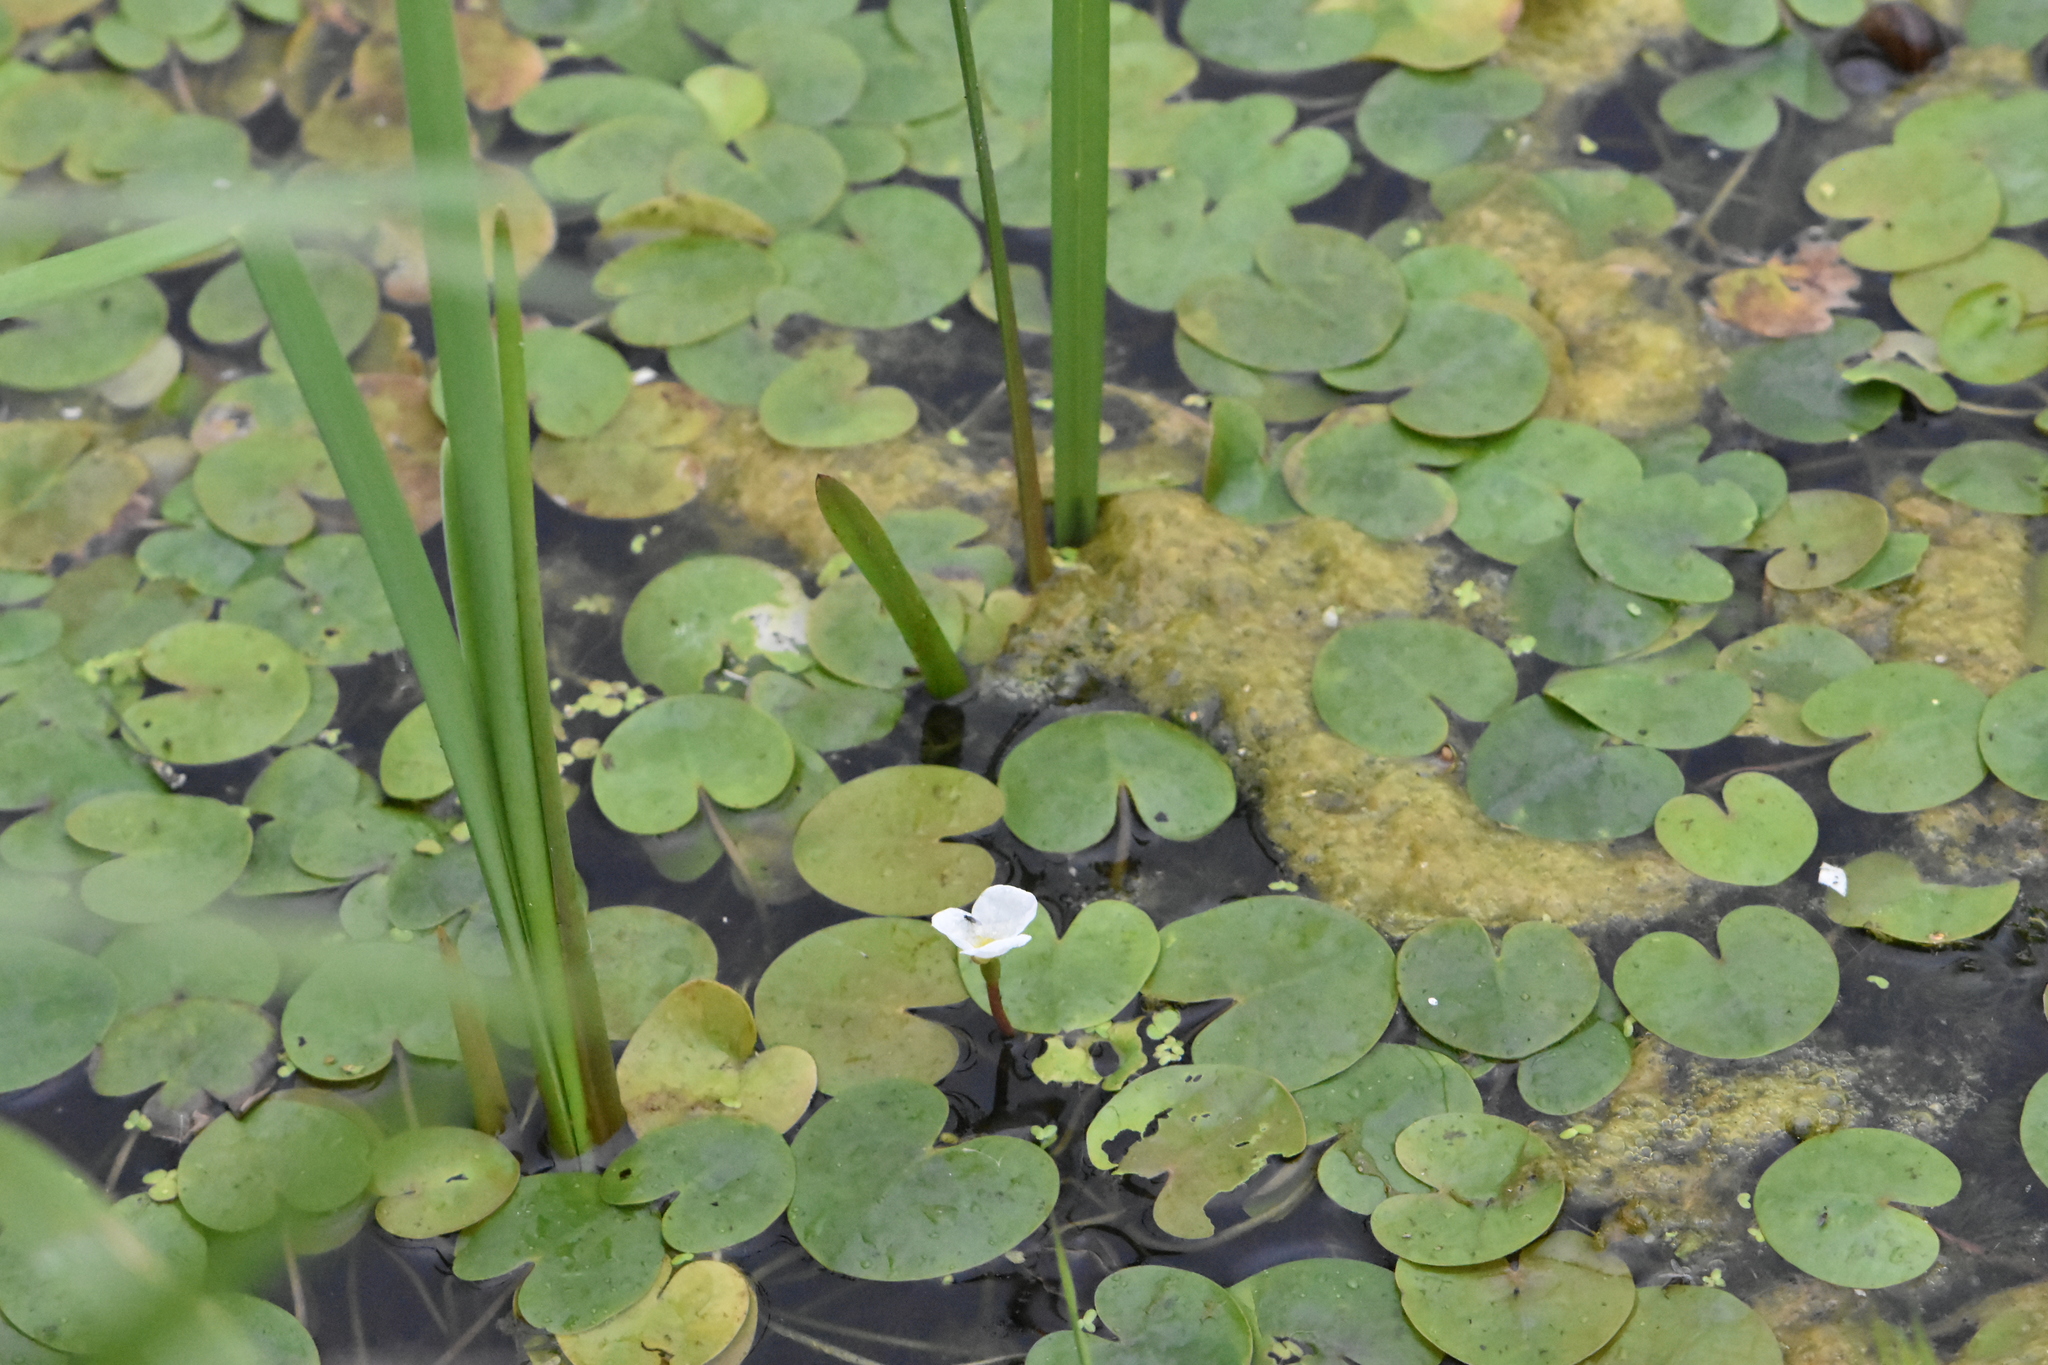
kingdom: Plantae
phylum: Tracheophyta
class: Liliopsida
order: Alismatales
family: Hydrocharitaceae
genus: Hydrocharis
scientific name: Hydrocharis morsus-ranae
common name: Frogbit
